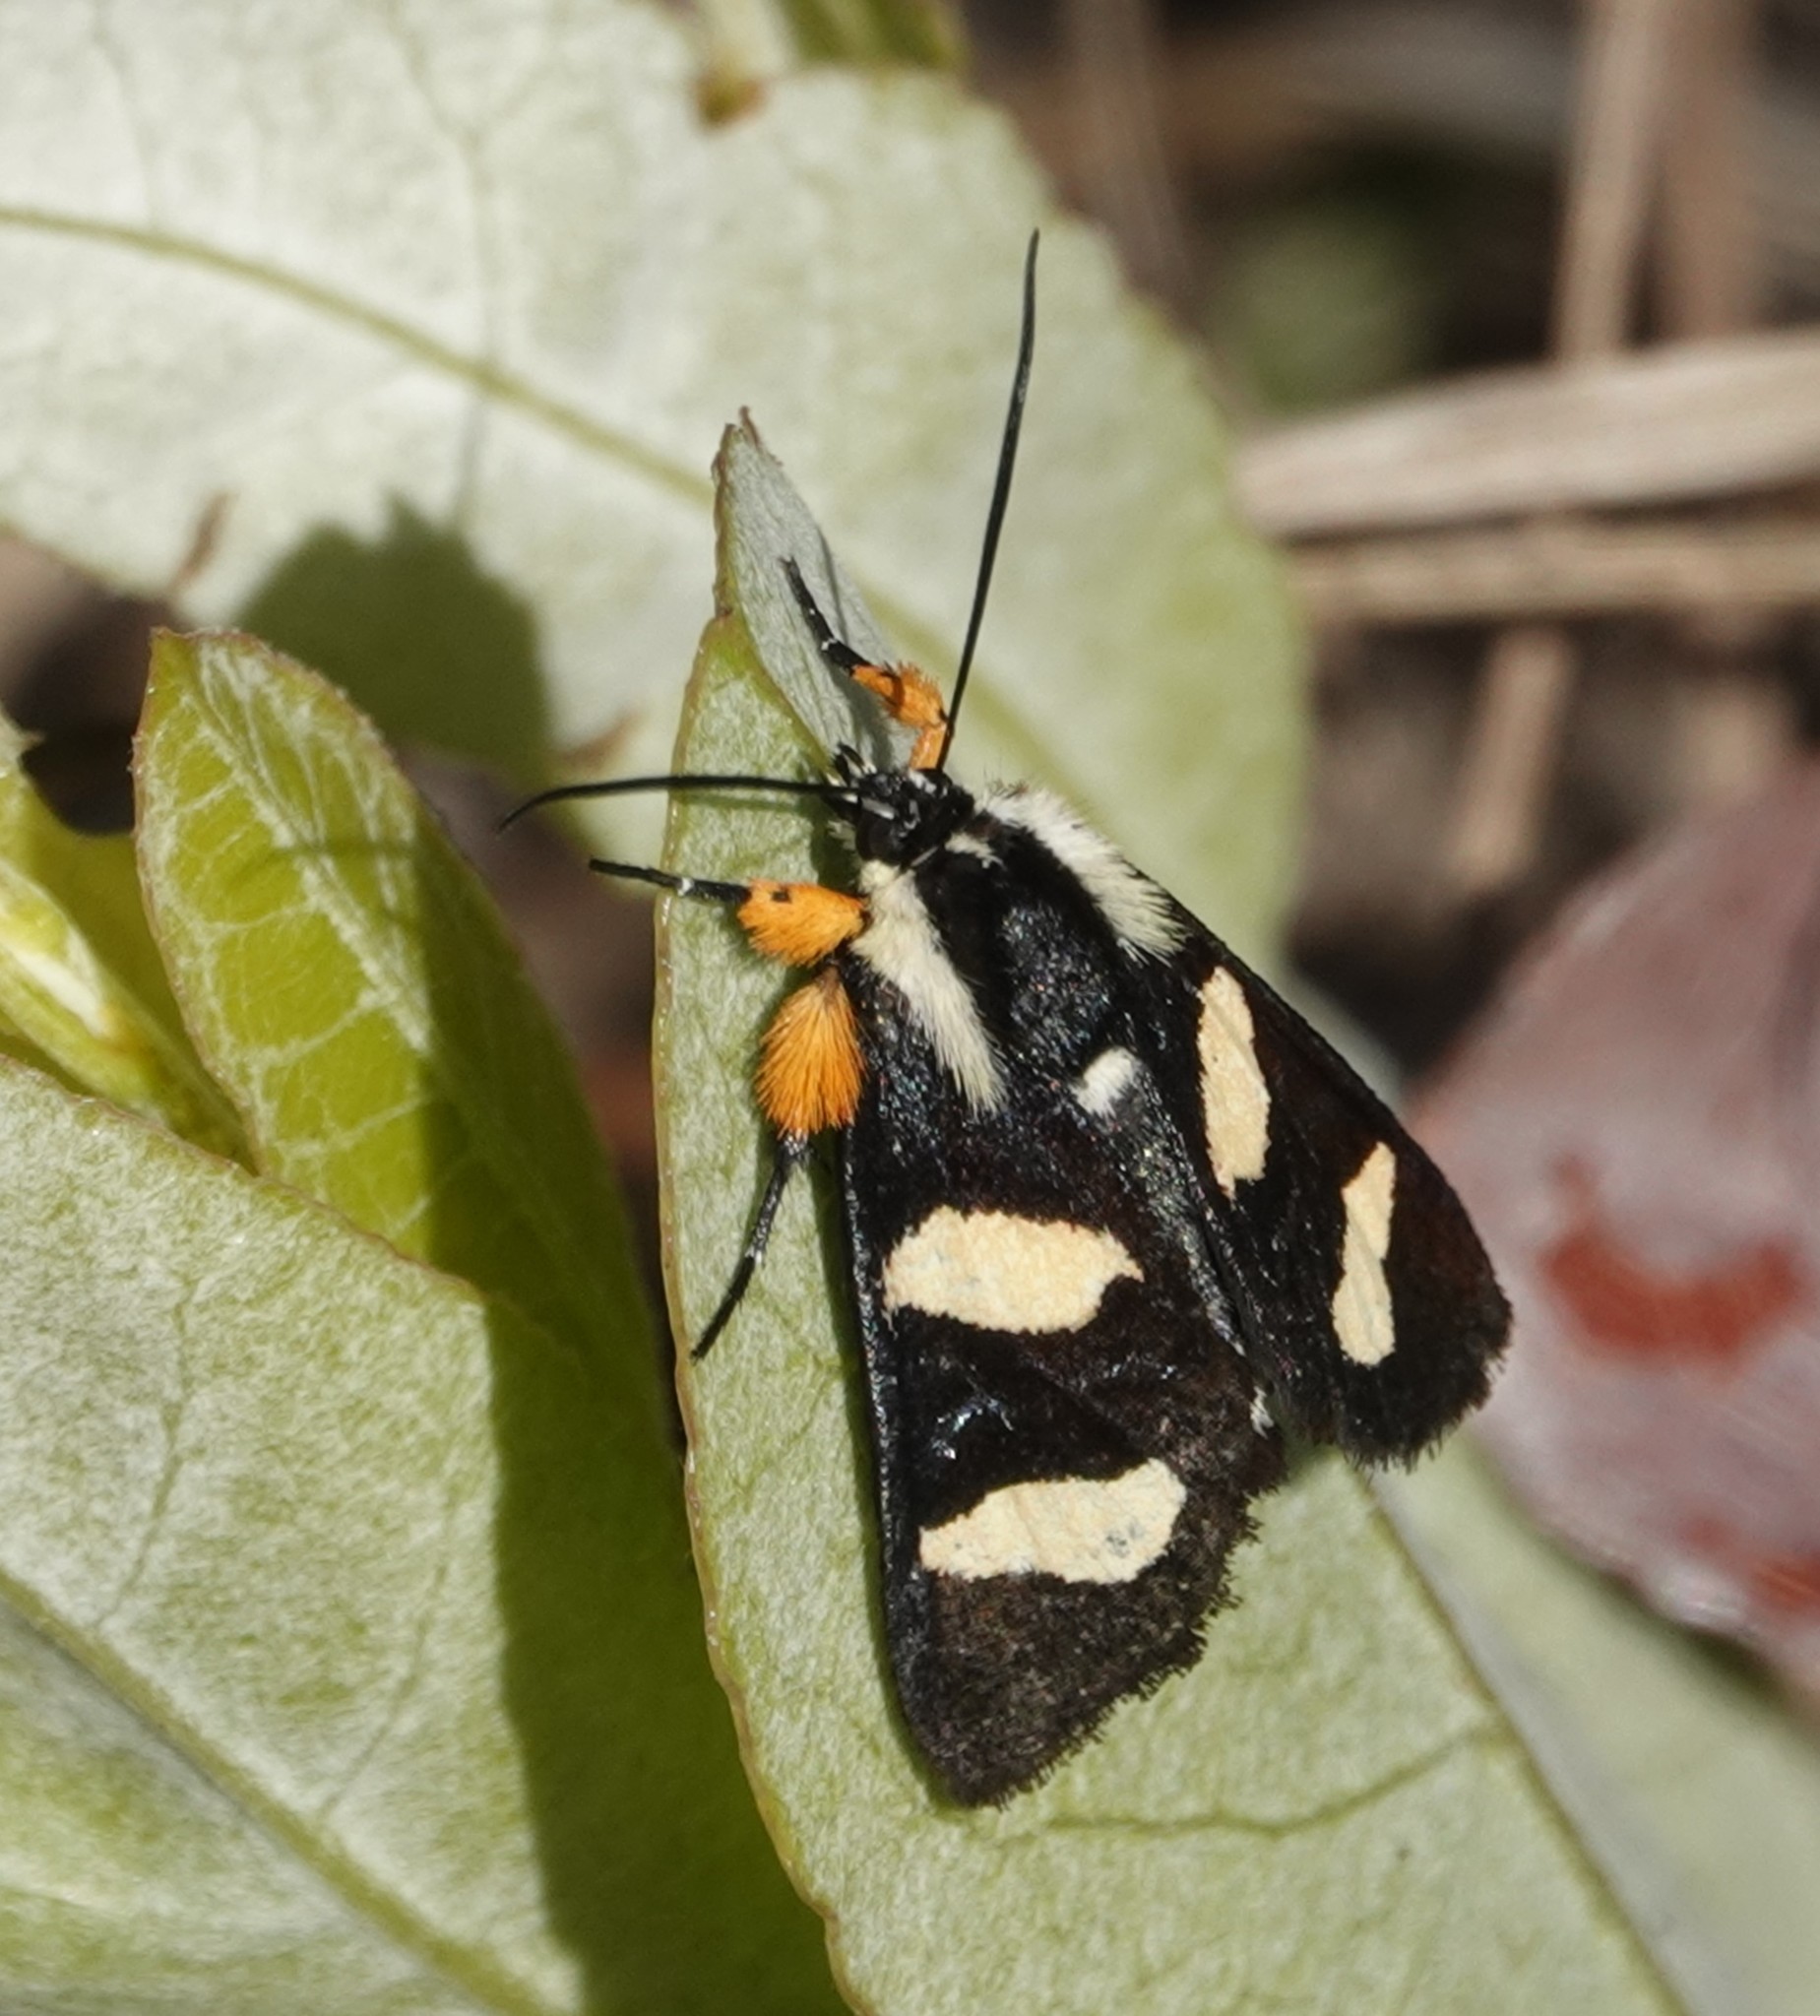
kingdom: Animalia
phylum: Arthropoda
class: Insecta
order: Lepidoptera
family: Noctuidae
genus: Alypia
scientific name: Alypia wittfeldii
